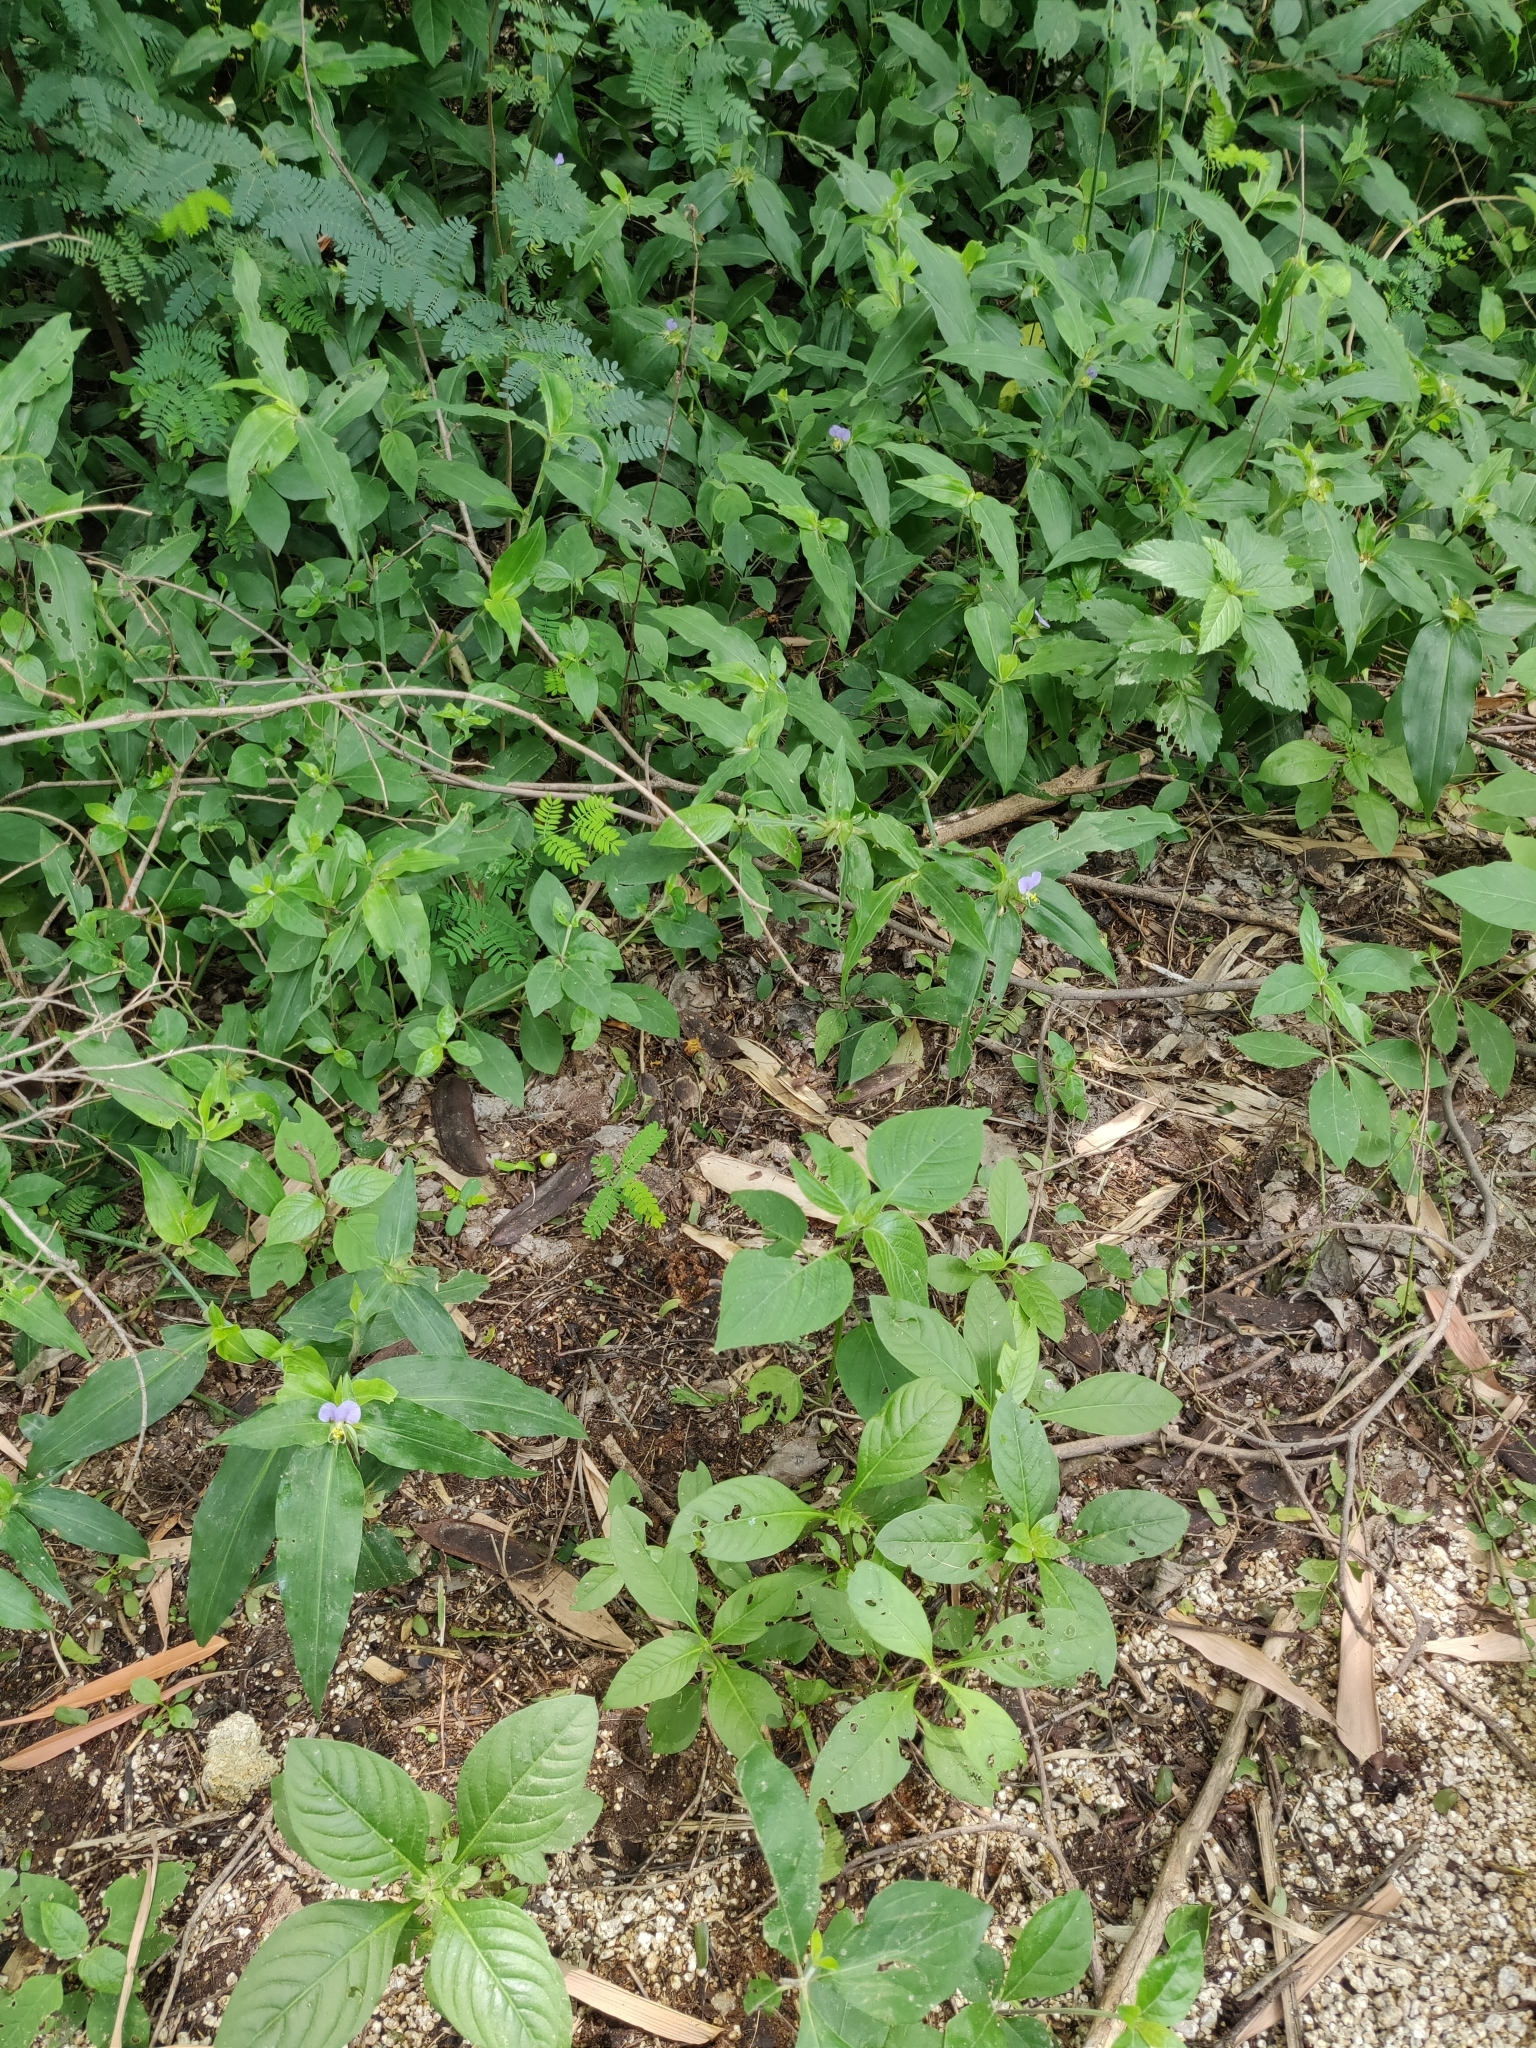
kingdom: Plantae
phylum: Tracheophyta
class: Liliopsida
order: Commelinales
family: Commelinaceae
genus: Commelina
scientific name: Commelina undulata
